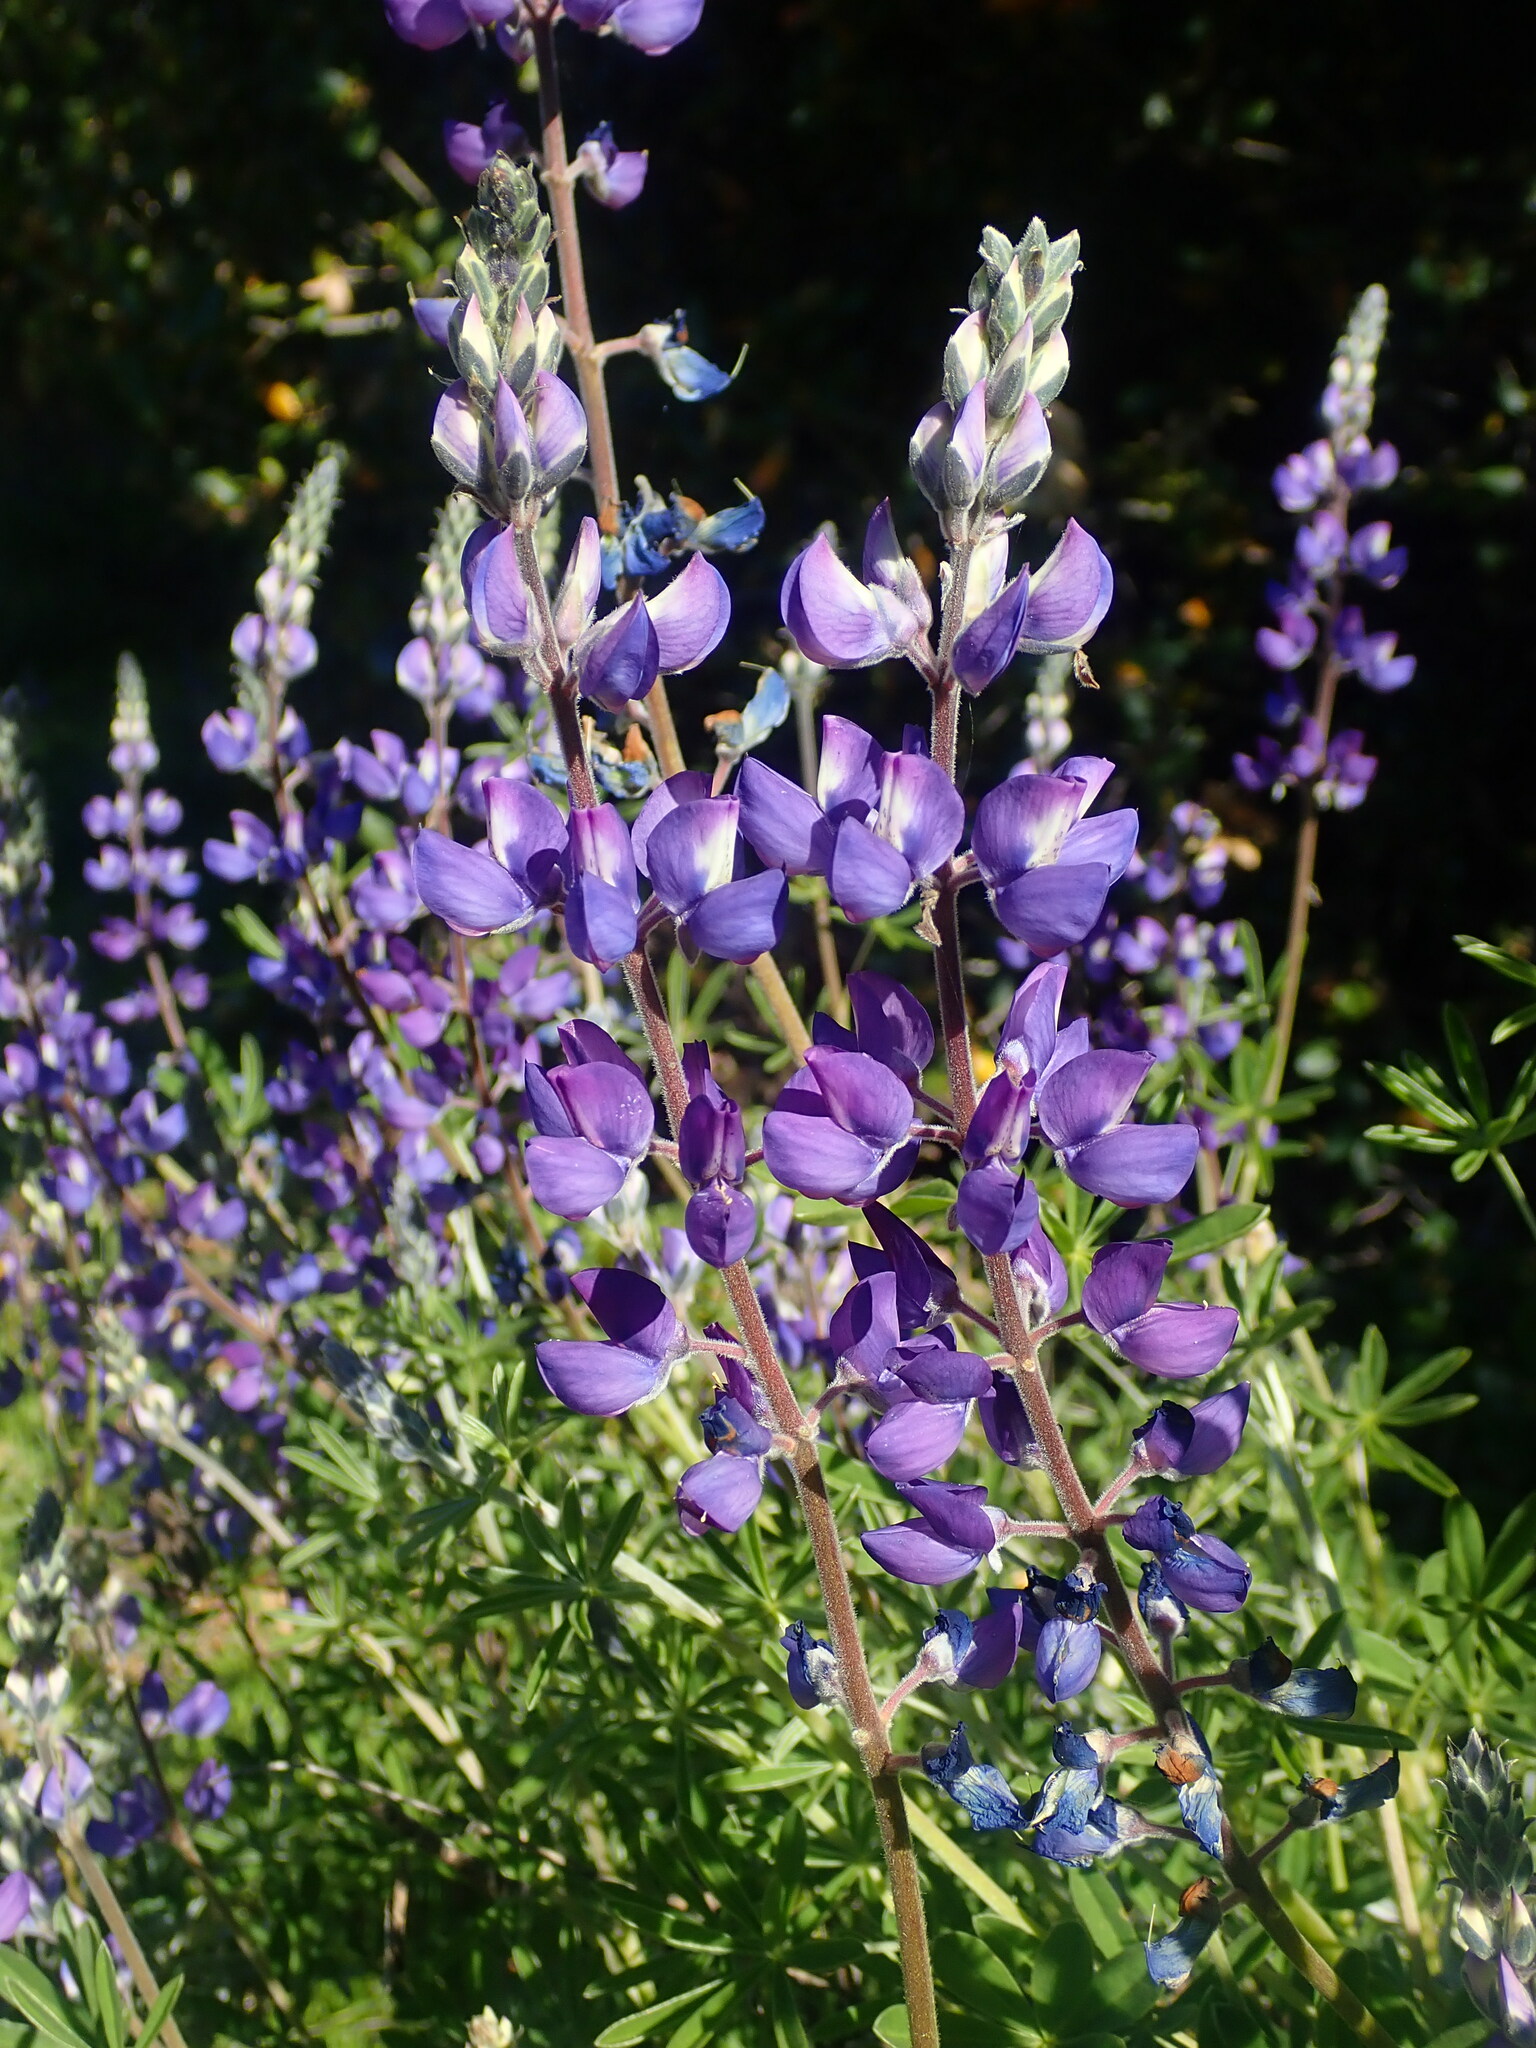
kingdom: Plantae
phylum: Tracheophyta
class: Magnoliopsida
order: Fabales
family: Fabaceae
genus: Lupinus
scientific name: Lupinus albifrons
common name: Foothill lupine
